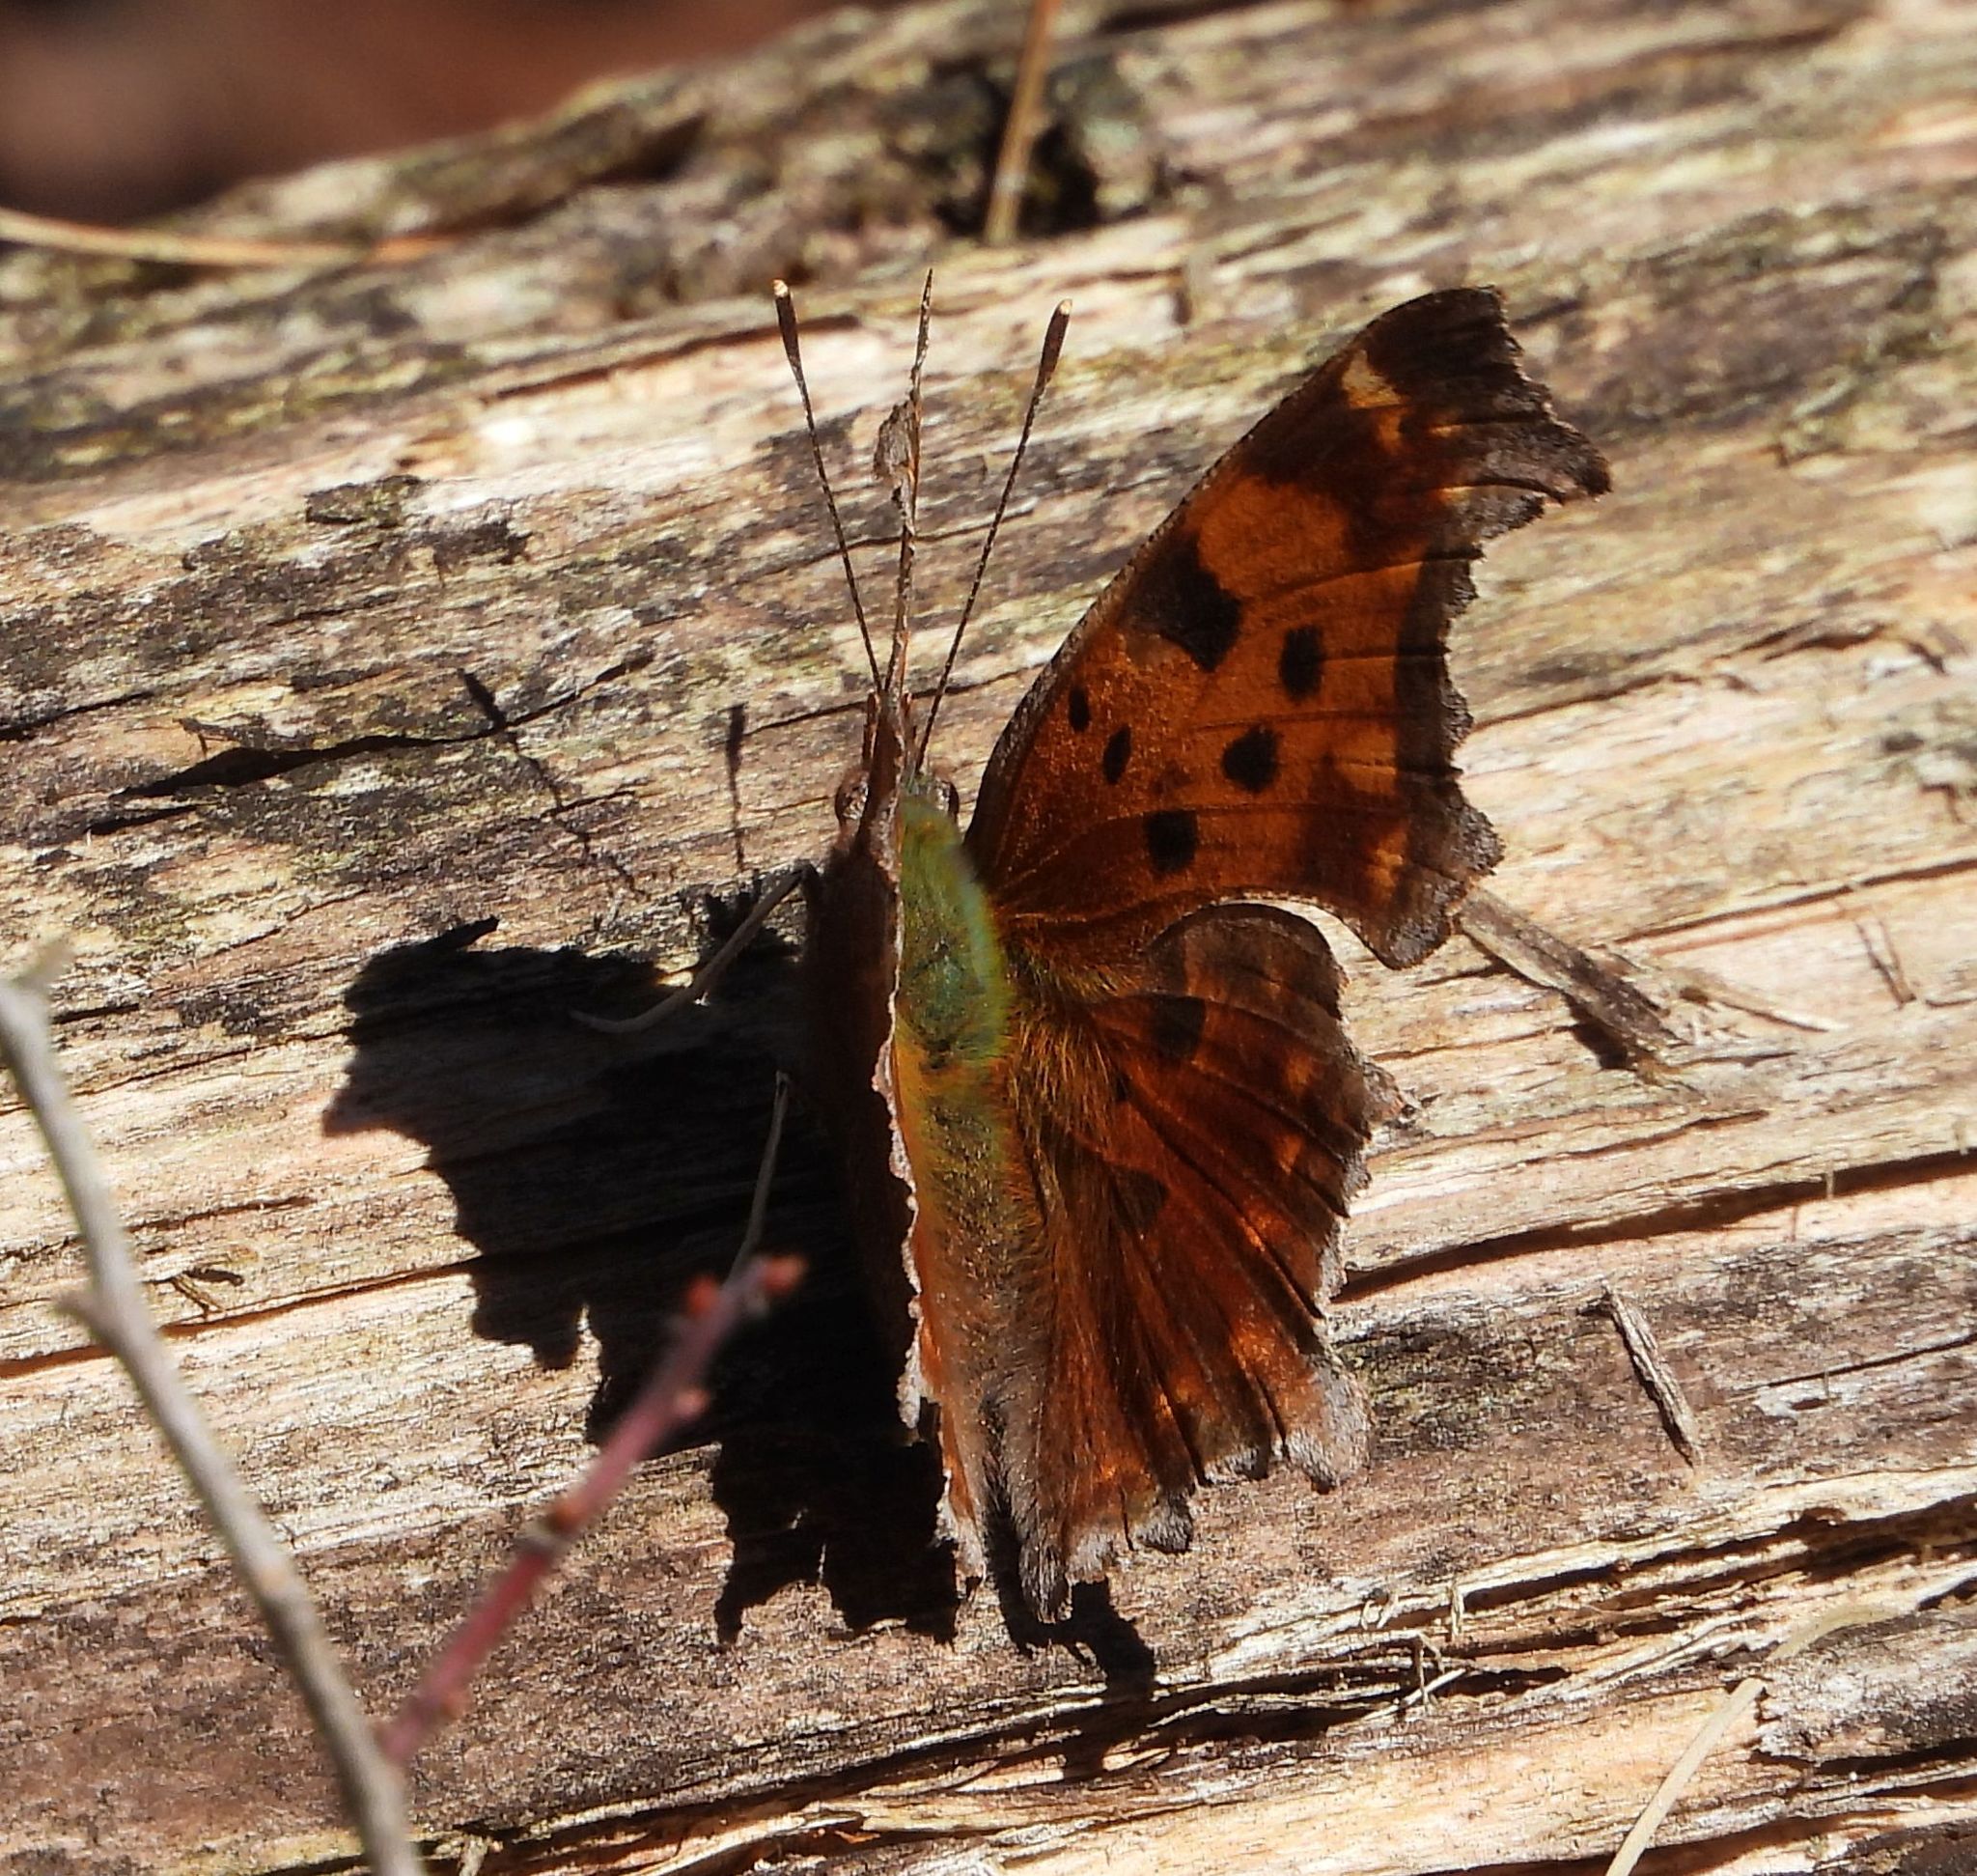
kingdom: Animalia
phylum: Arthropoda
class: Insecta
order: Lepidoptera
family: Nymphalidae
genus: Polygonia
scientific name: Polygonia comma
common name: Eastern comma
